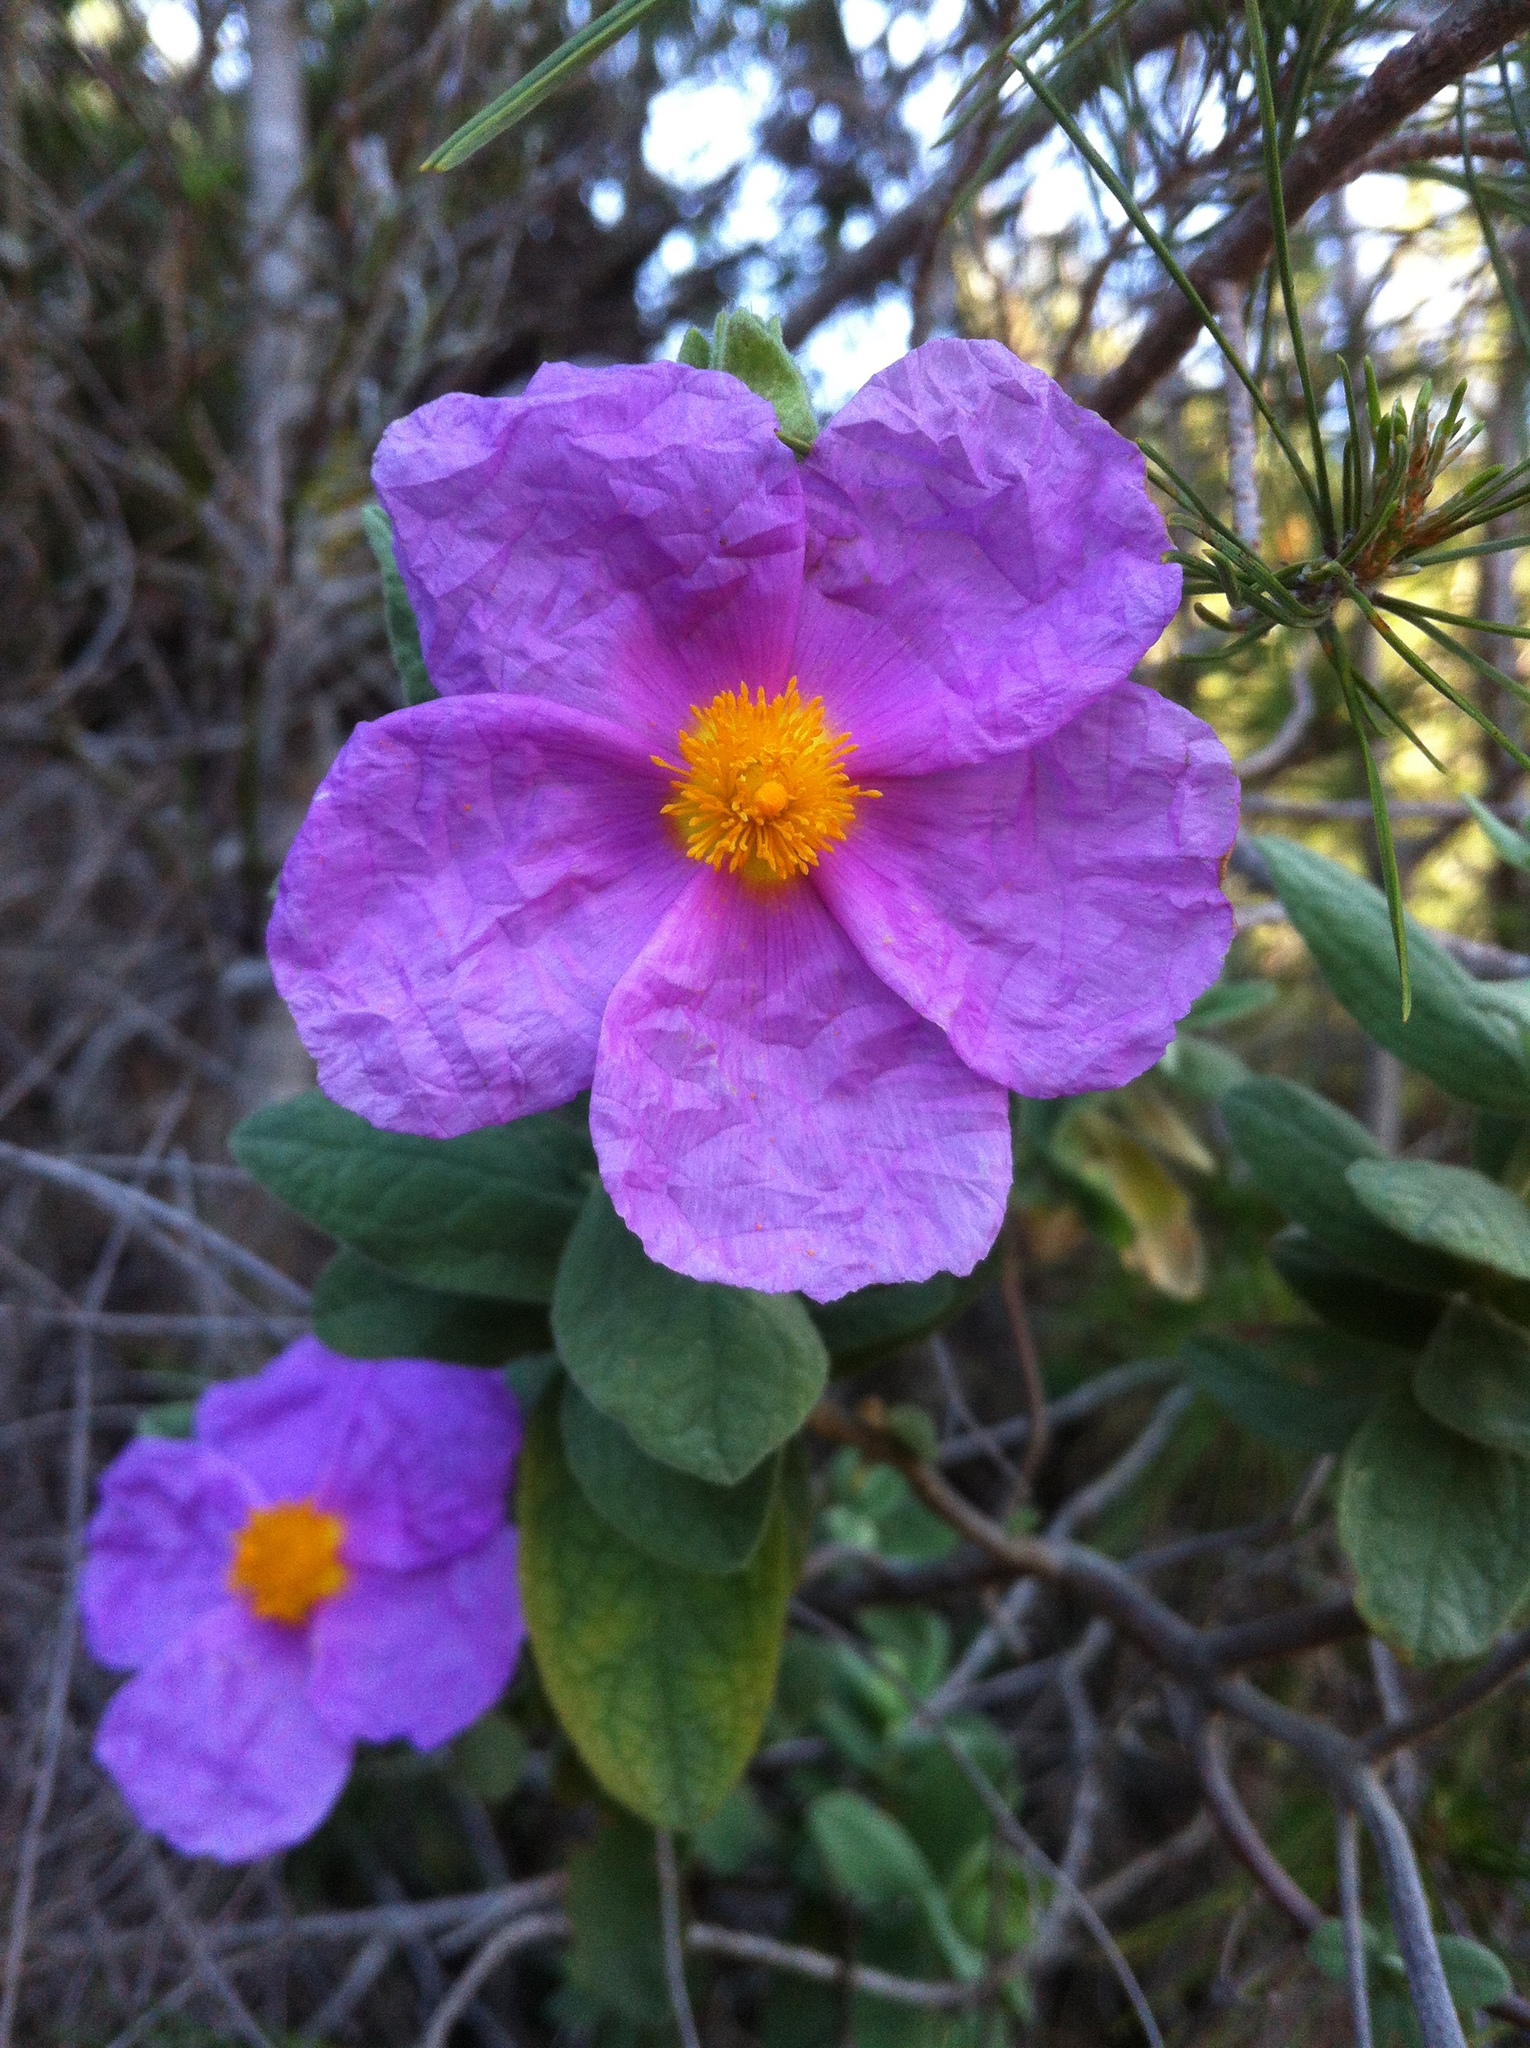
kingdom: Plantae
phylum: Tracheophyta
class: Magnoliopsida
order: Malvales
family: Cistaceae
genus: Cistus
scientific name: Cistus albidus
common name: White-leaf rock-rose
